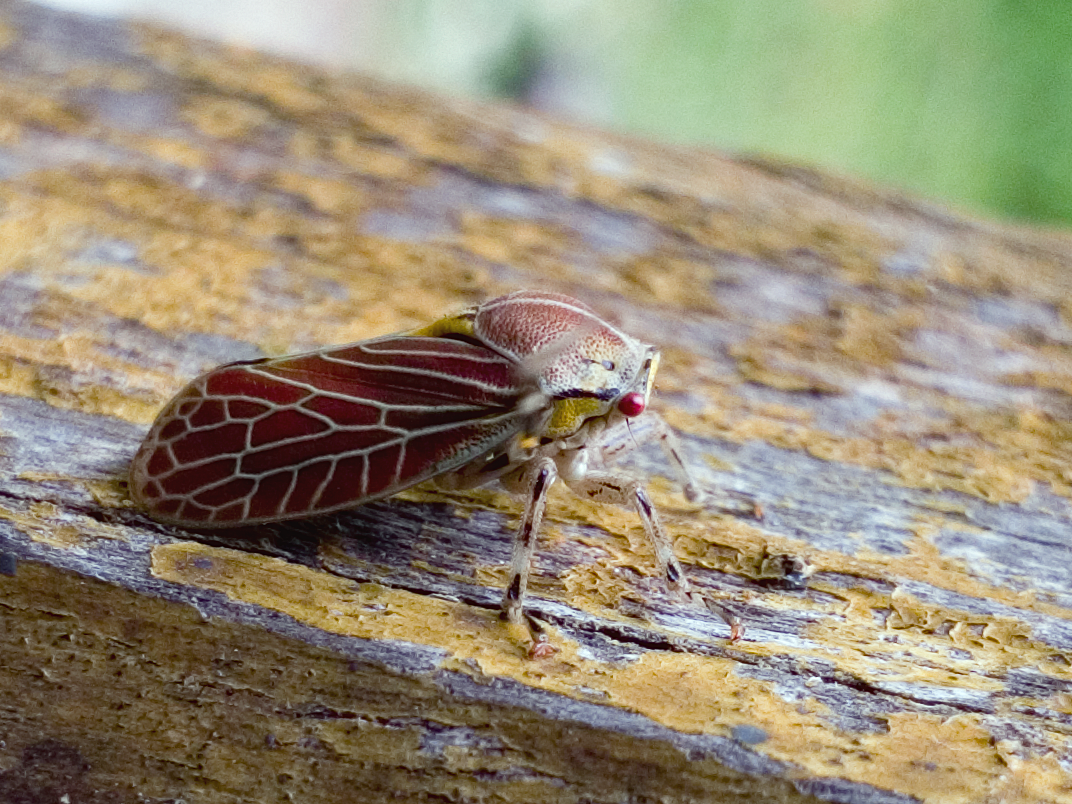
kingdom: Animalia
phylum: Arthropoda
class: Insecta
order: Hemiptera
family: Aetalionidae
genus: Aetalion
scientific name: Aetalion reticulatum
